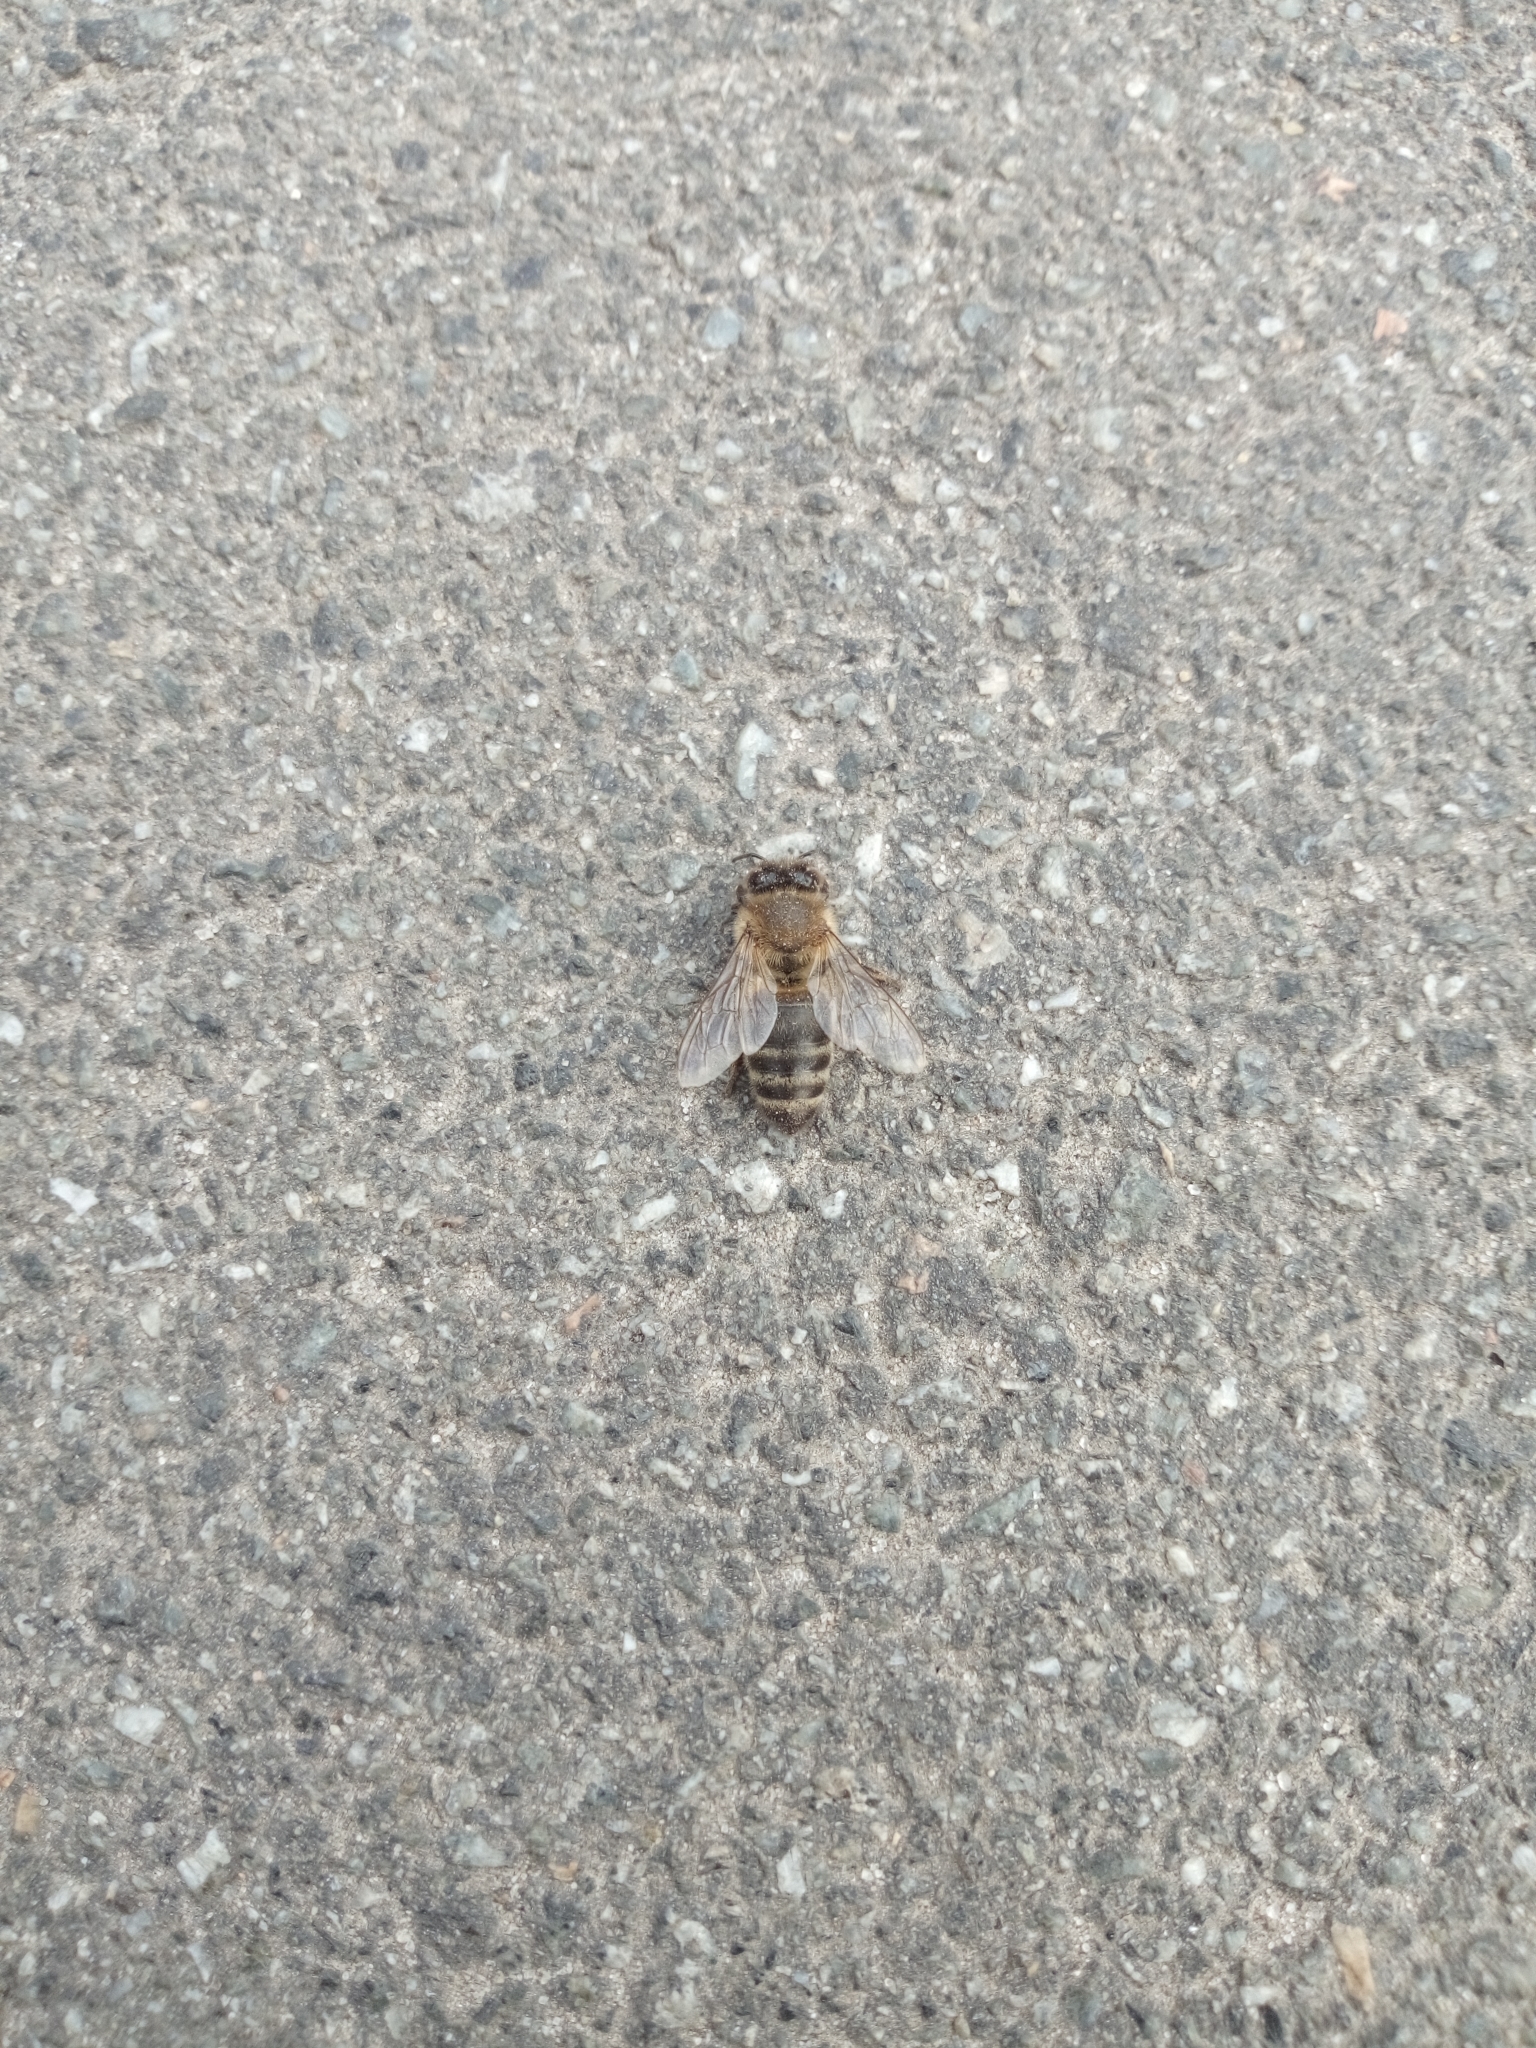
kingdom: Animalia
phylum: Arthropoda
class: Insecta
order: Hymenoptera
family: Apidae
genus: Apis
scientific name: Apis mellifera
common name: Honey bee
